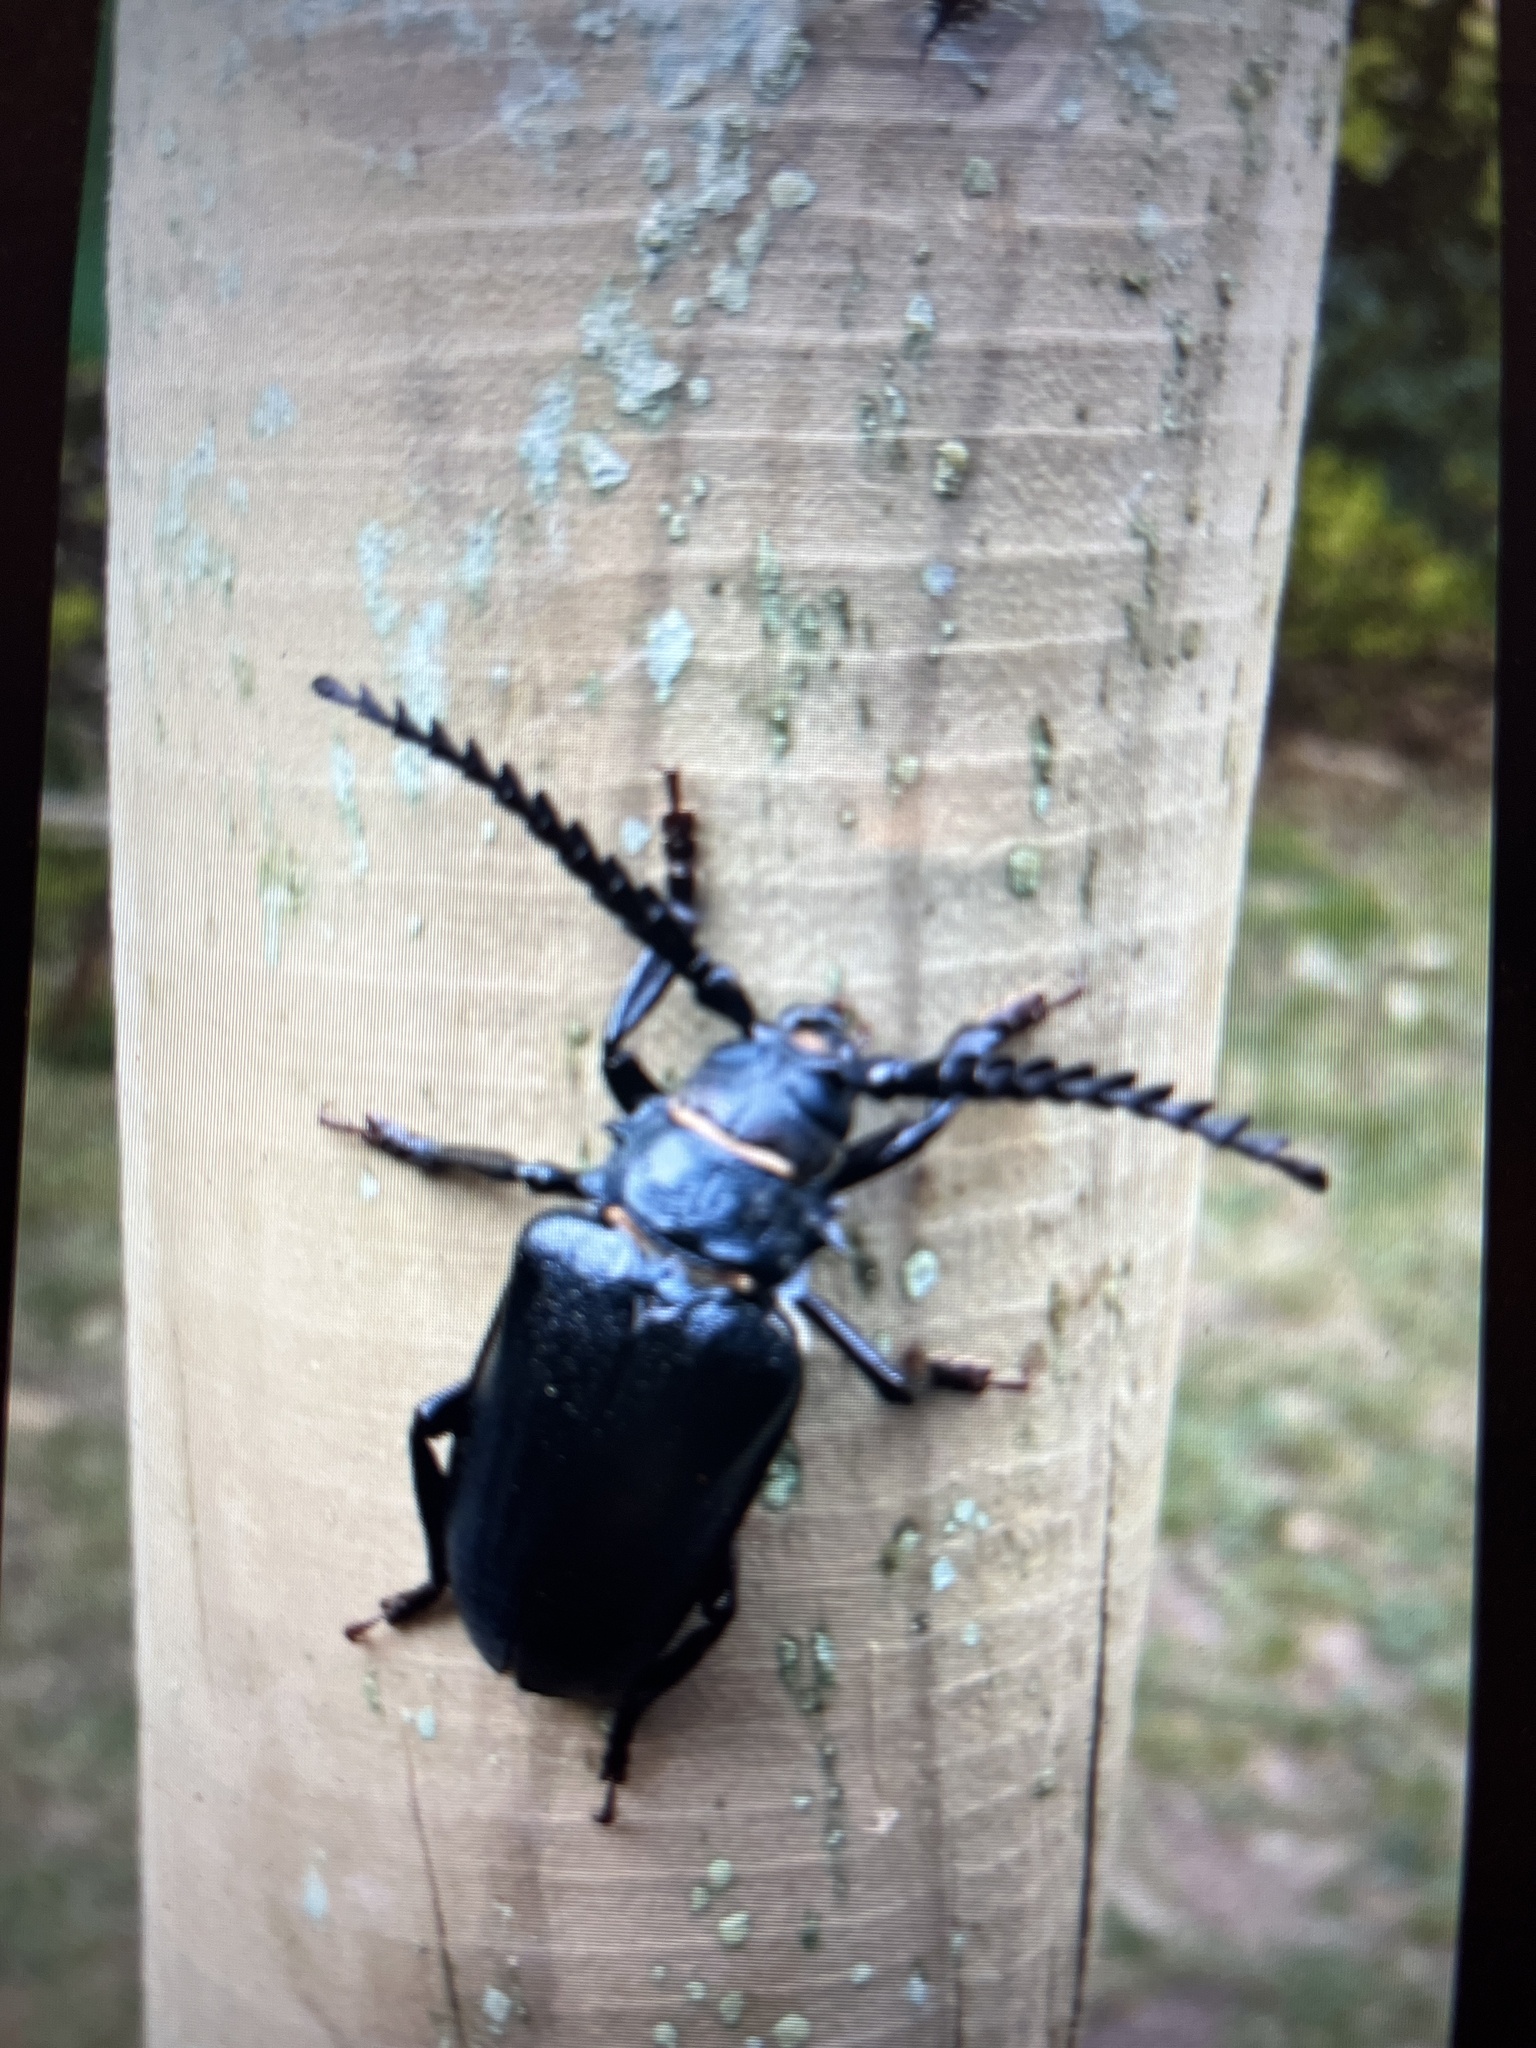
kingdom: Animalia
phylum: Arthropoda
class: Insecta
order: Coleoptera
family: Cerambycidae
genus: Prionus
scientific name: Prionus coriarius
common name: Tanner beetle
